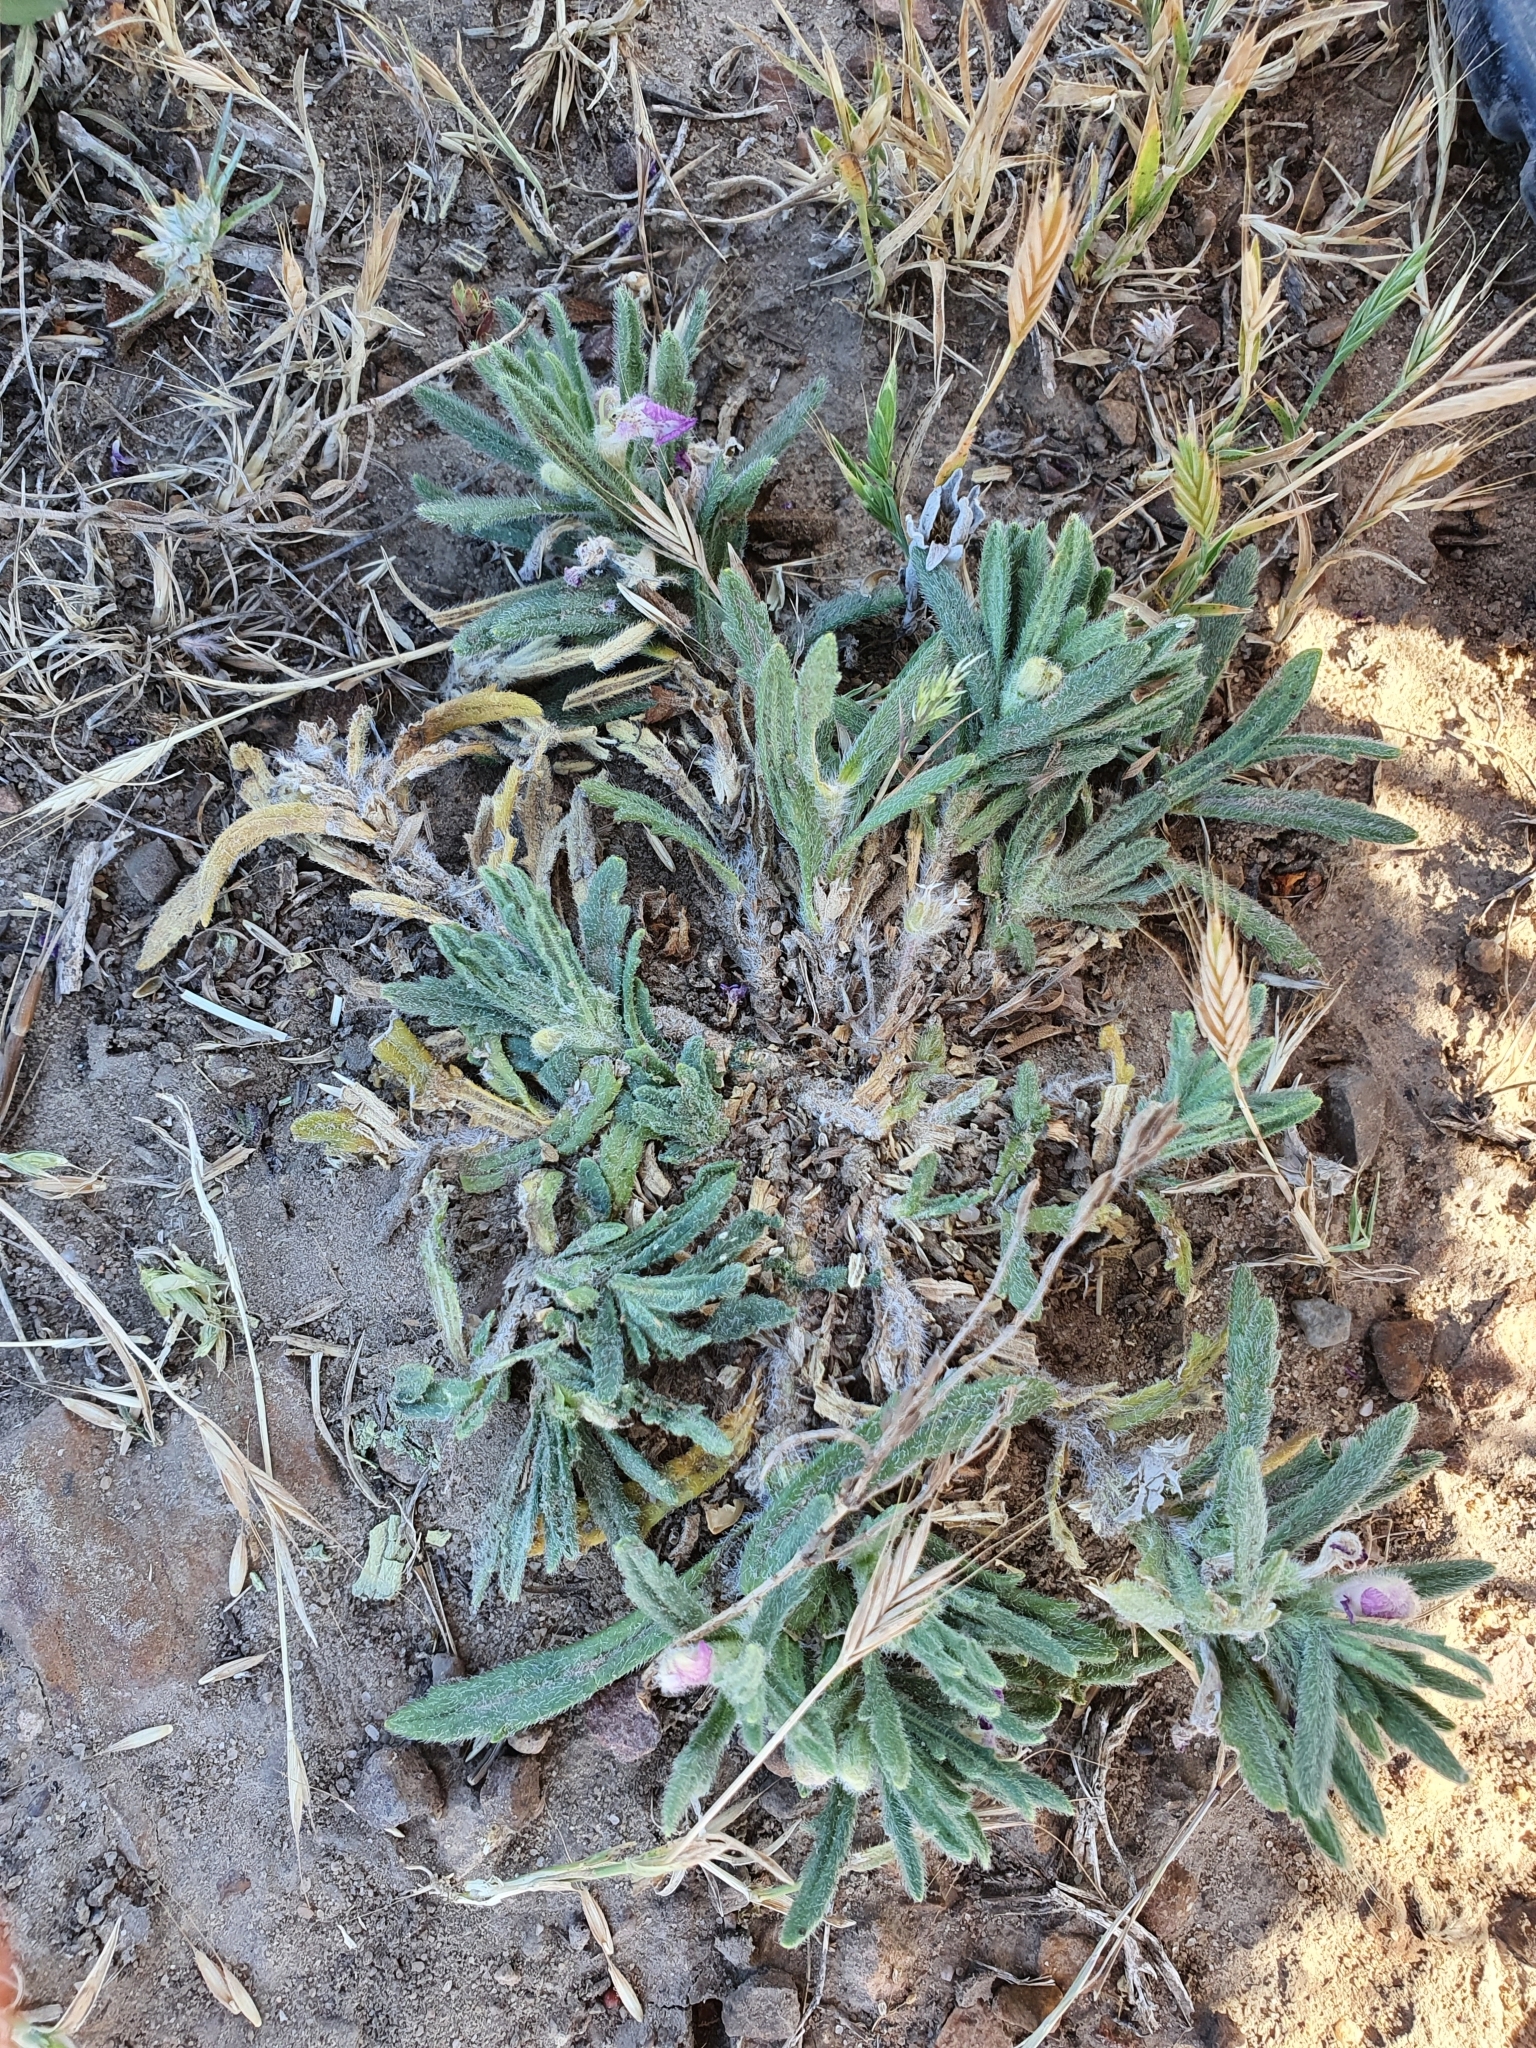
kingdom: Plantae
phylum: Tracheophyta
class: Magnoliopsida
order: Lamiales
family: Lamiaceae
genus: Ajuga
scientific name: Ajuga iva
